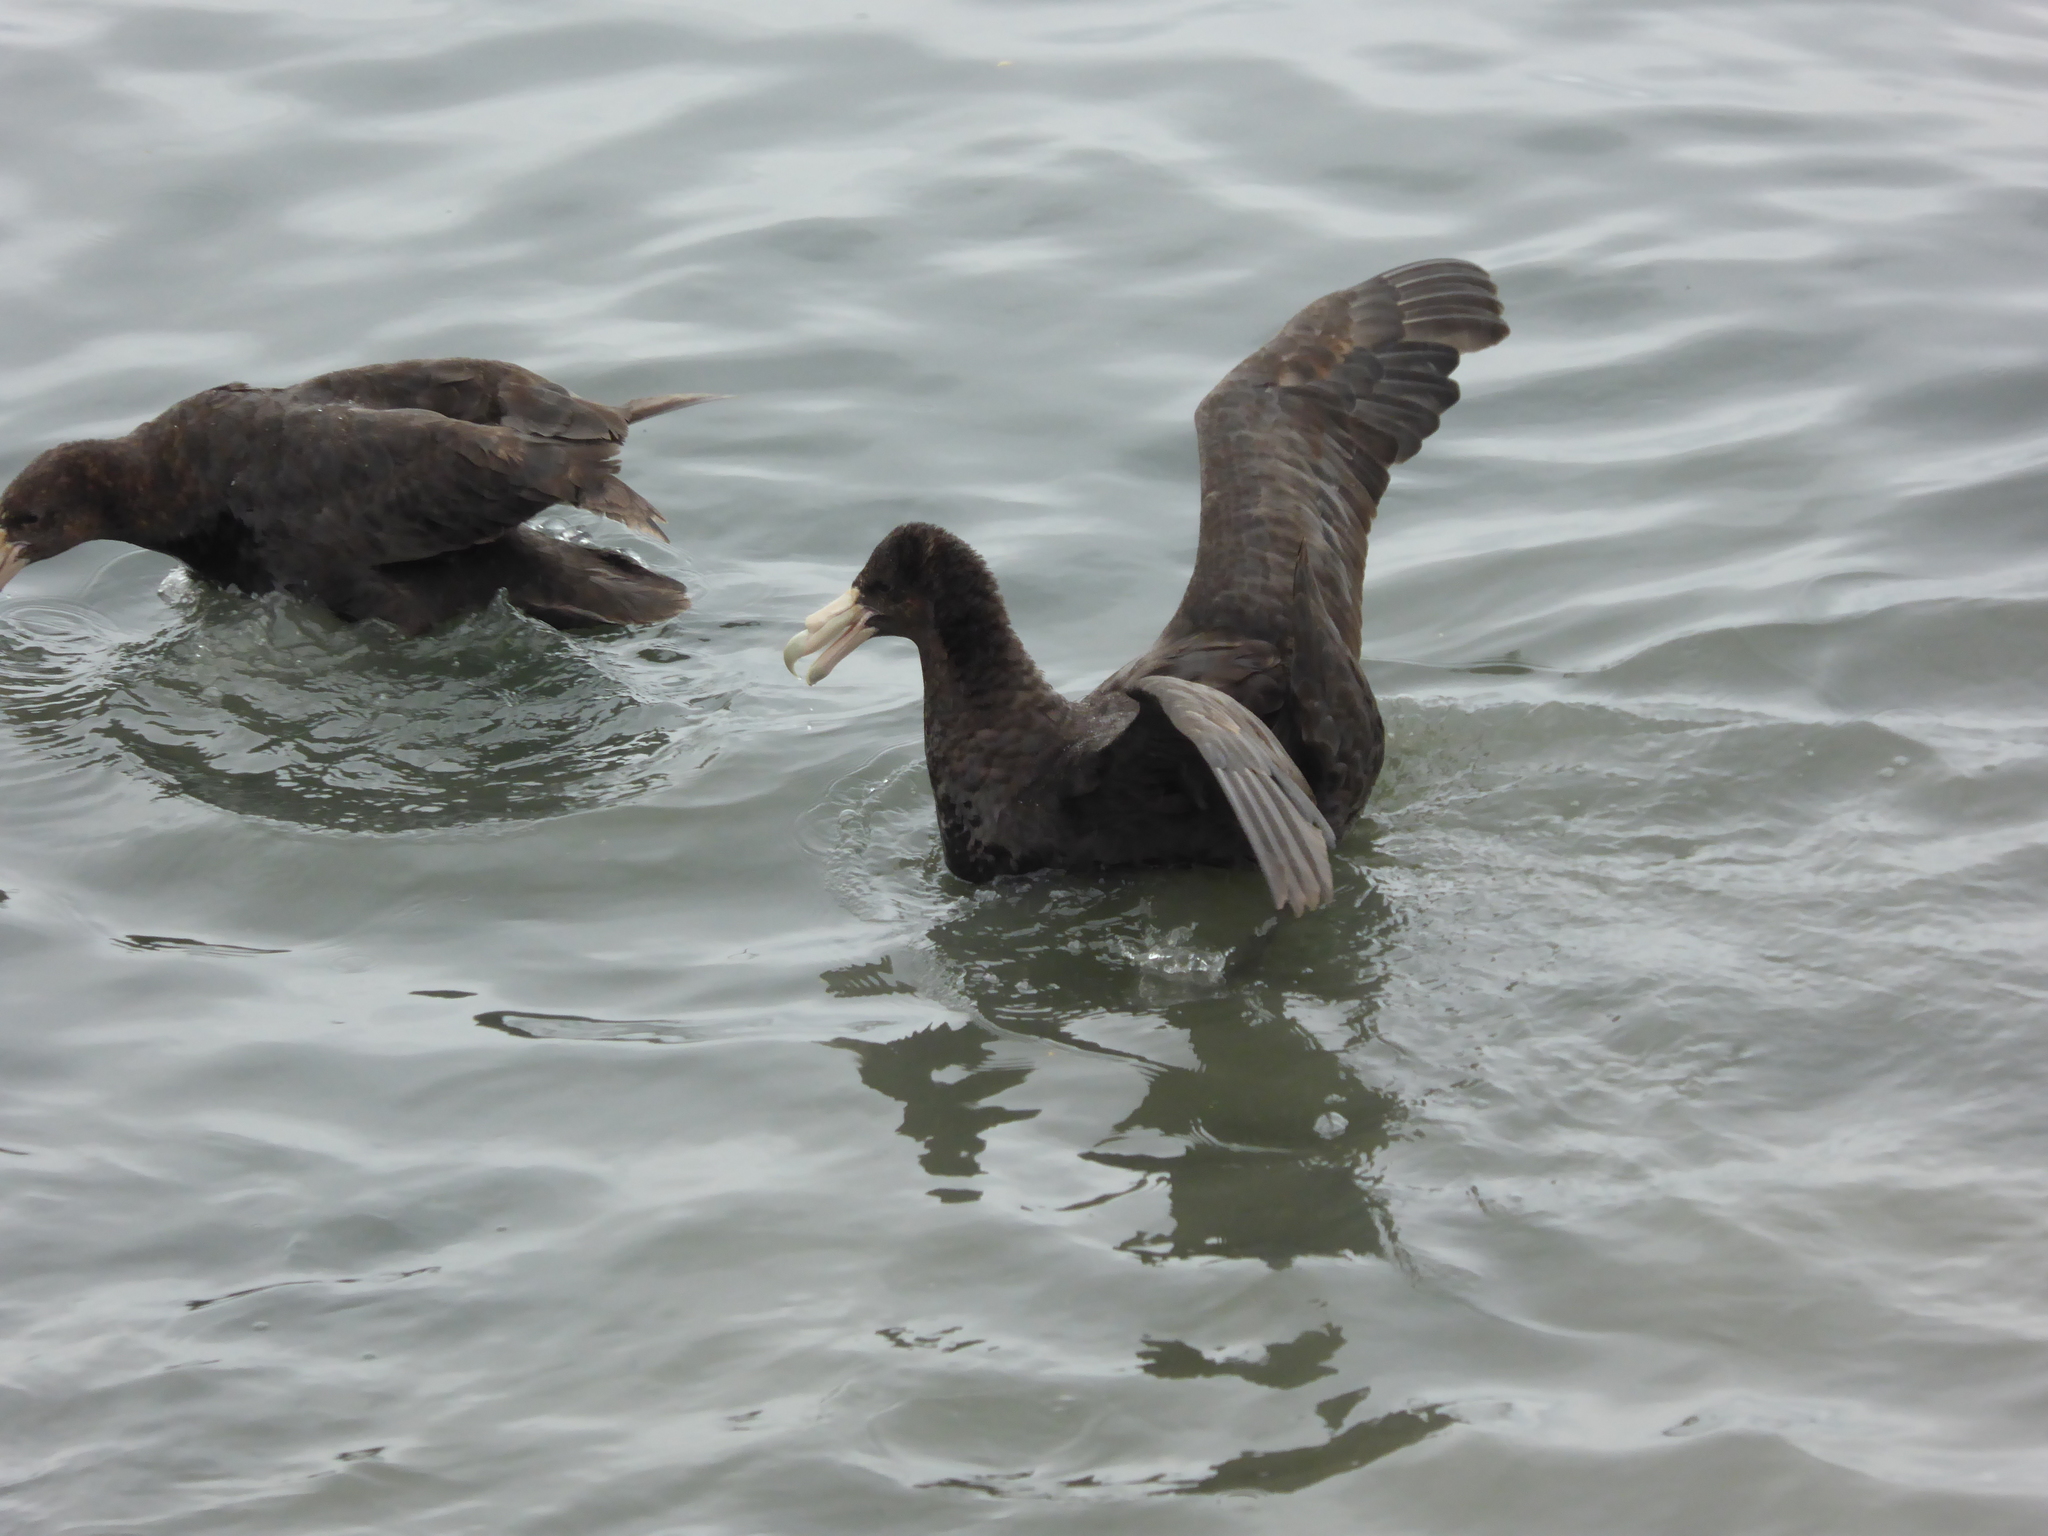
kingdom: Animalia
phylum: Chordata
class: Aves
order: Procellariiformes
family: Procellariidae
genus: Macronectes
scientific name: Macronectes giganteus
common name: Southern giant petrel
